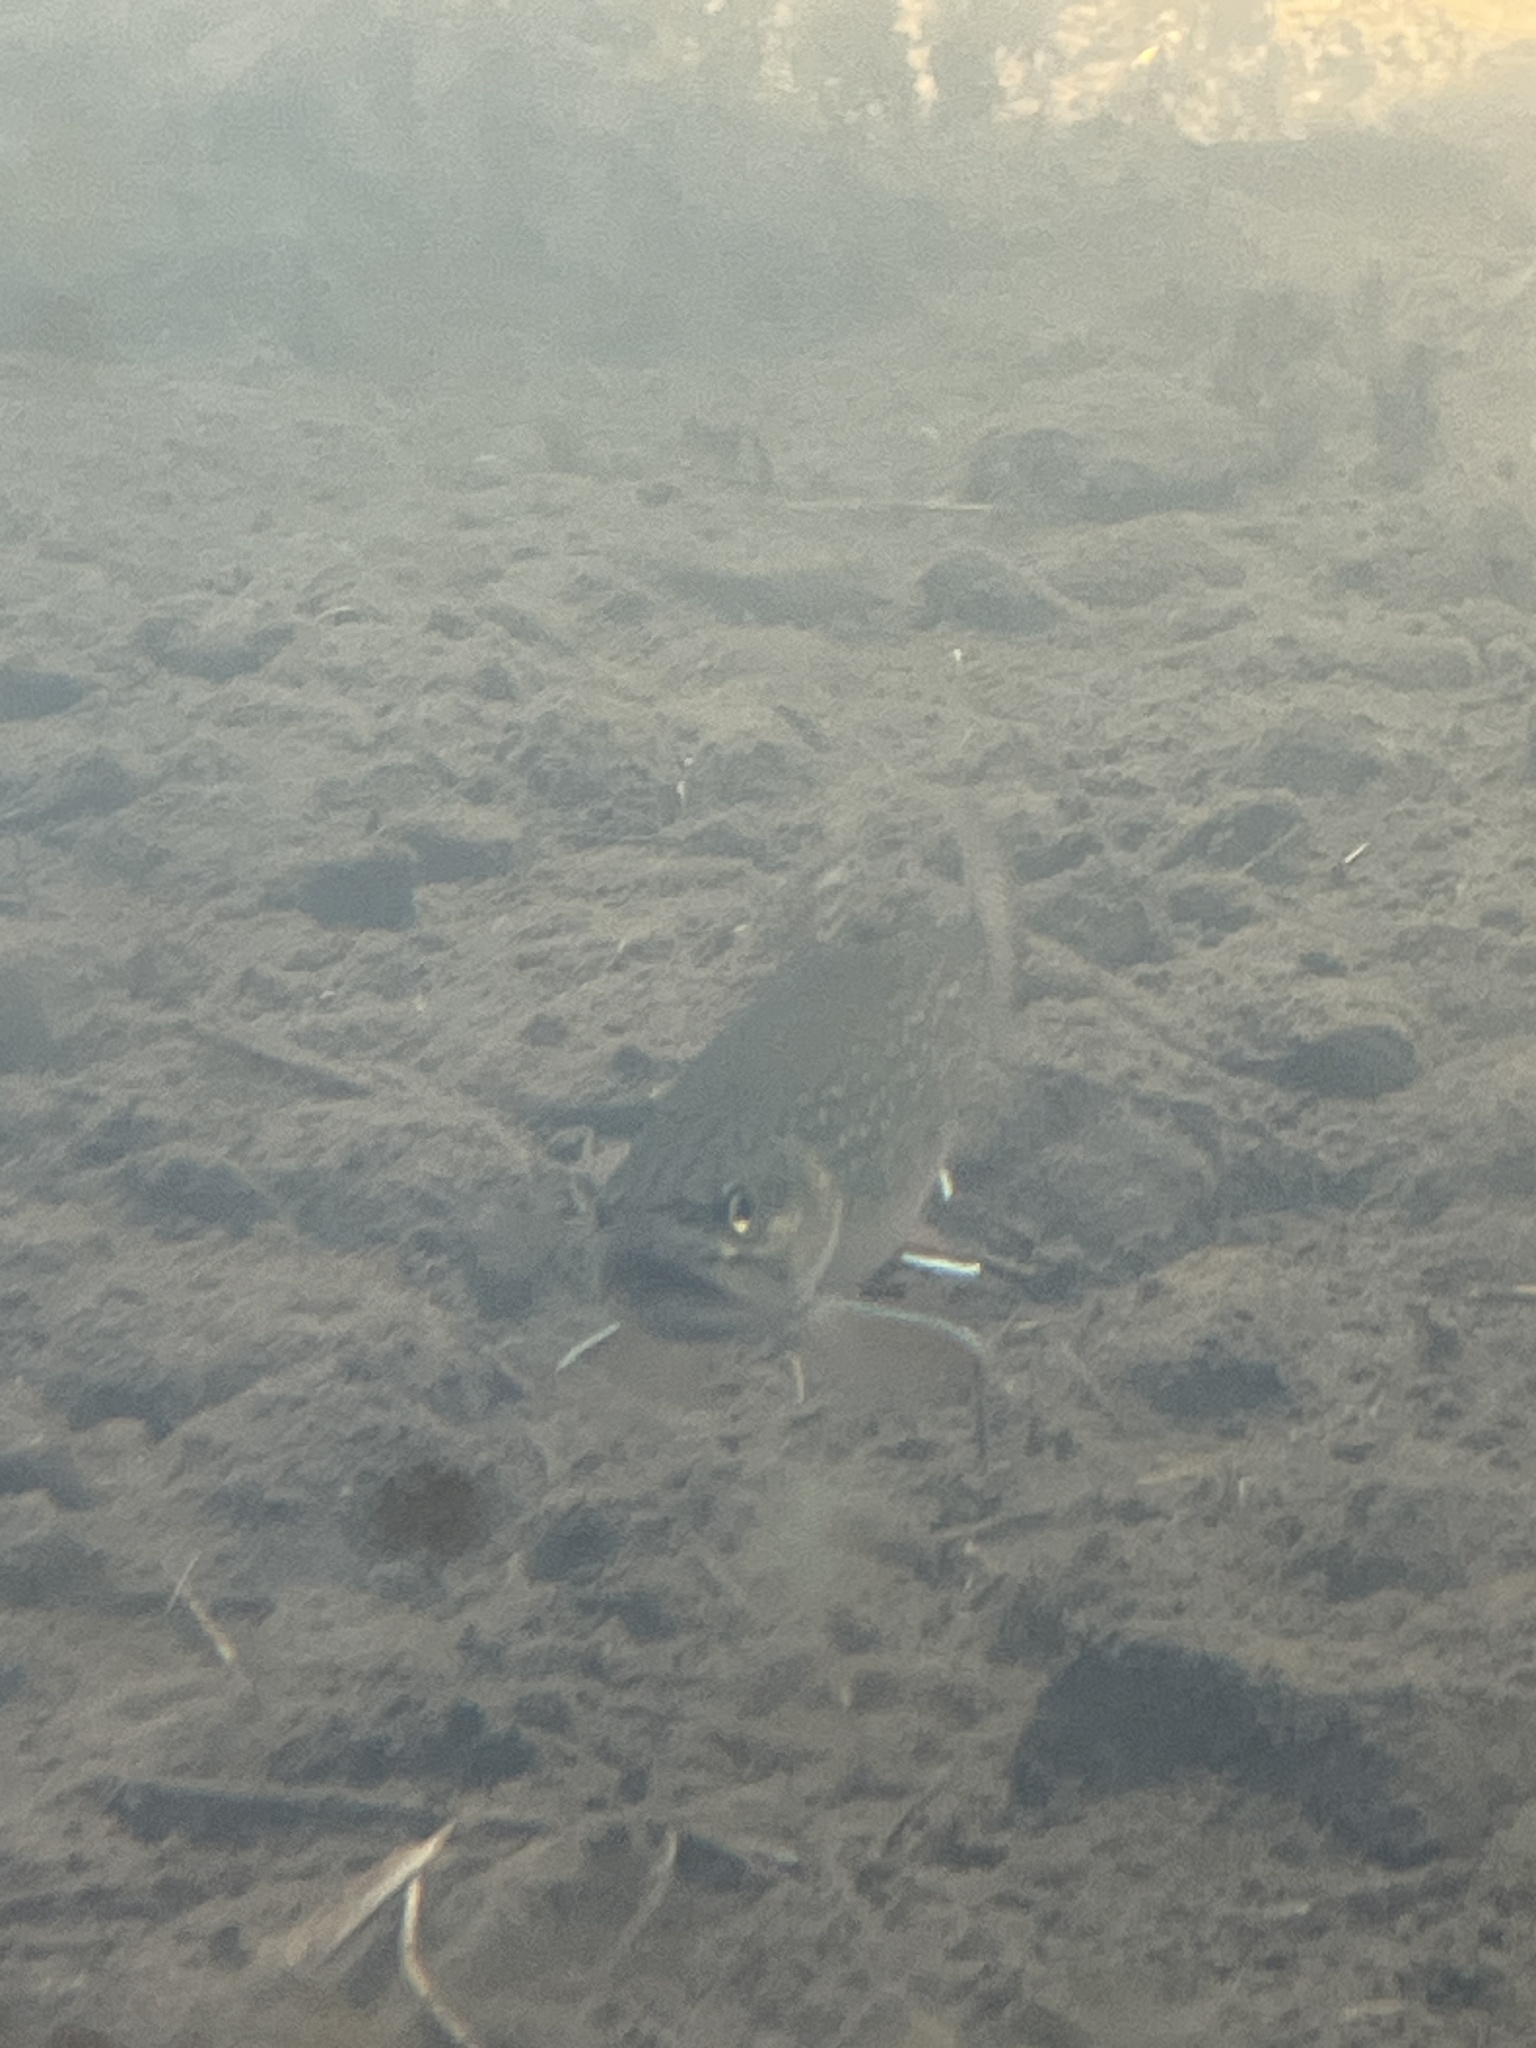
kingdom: Animalia
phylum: Chordata
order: Salmoniformes
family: Salmonidae
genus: Salvelinus
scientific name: Salvelinus fontinalis
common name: Brook trout
